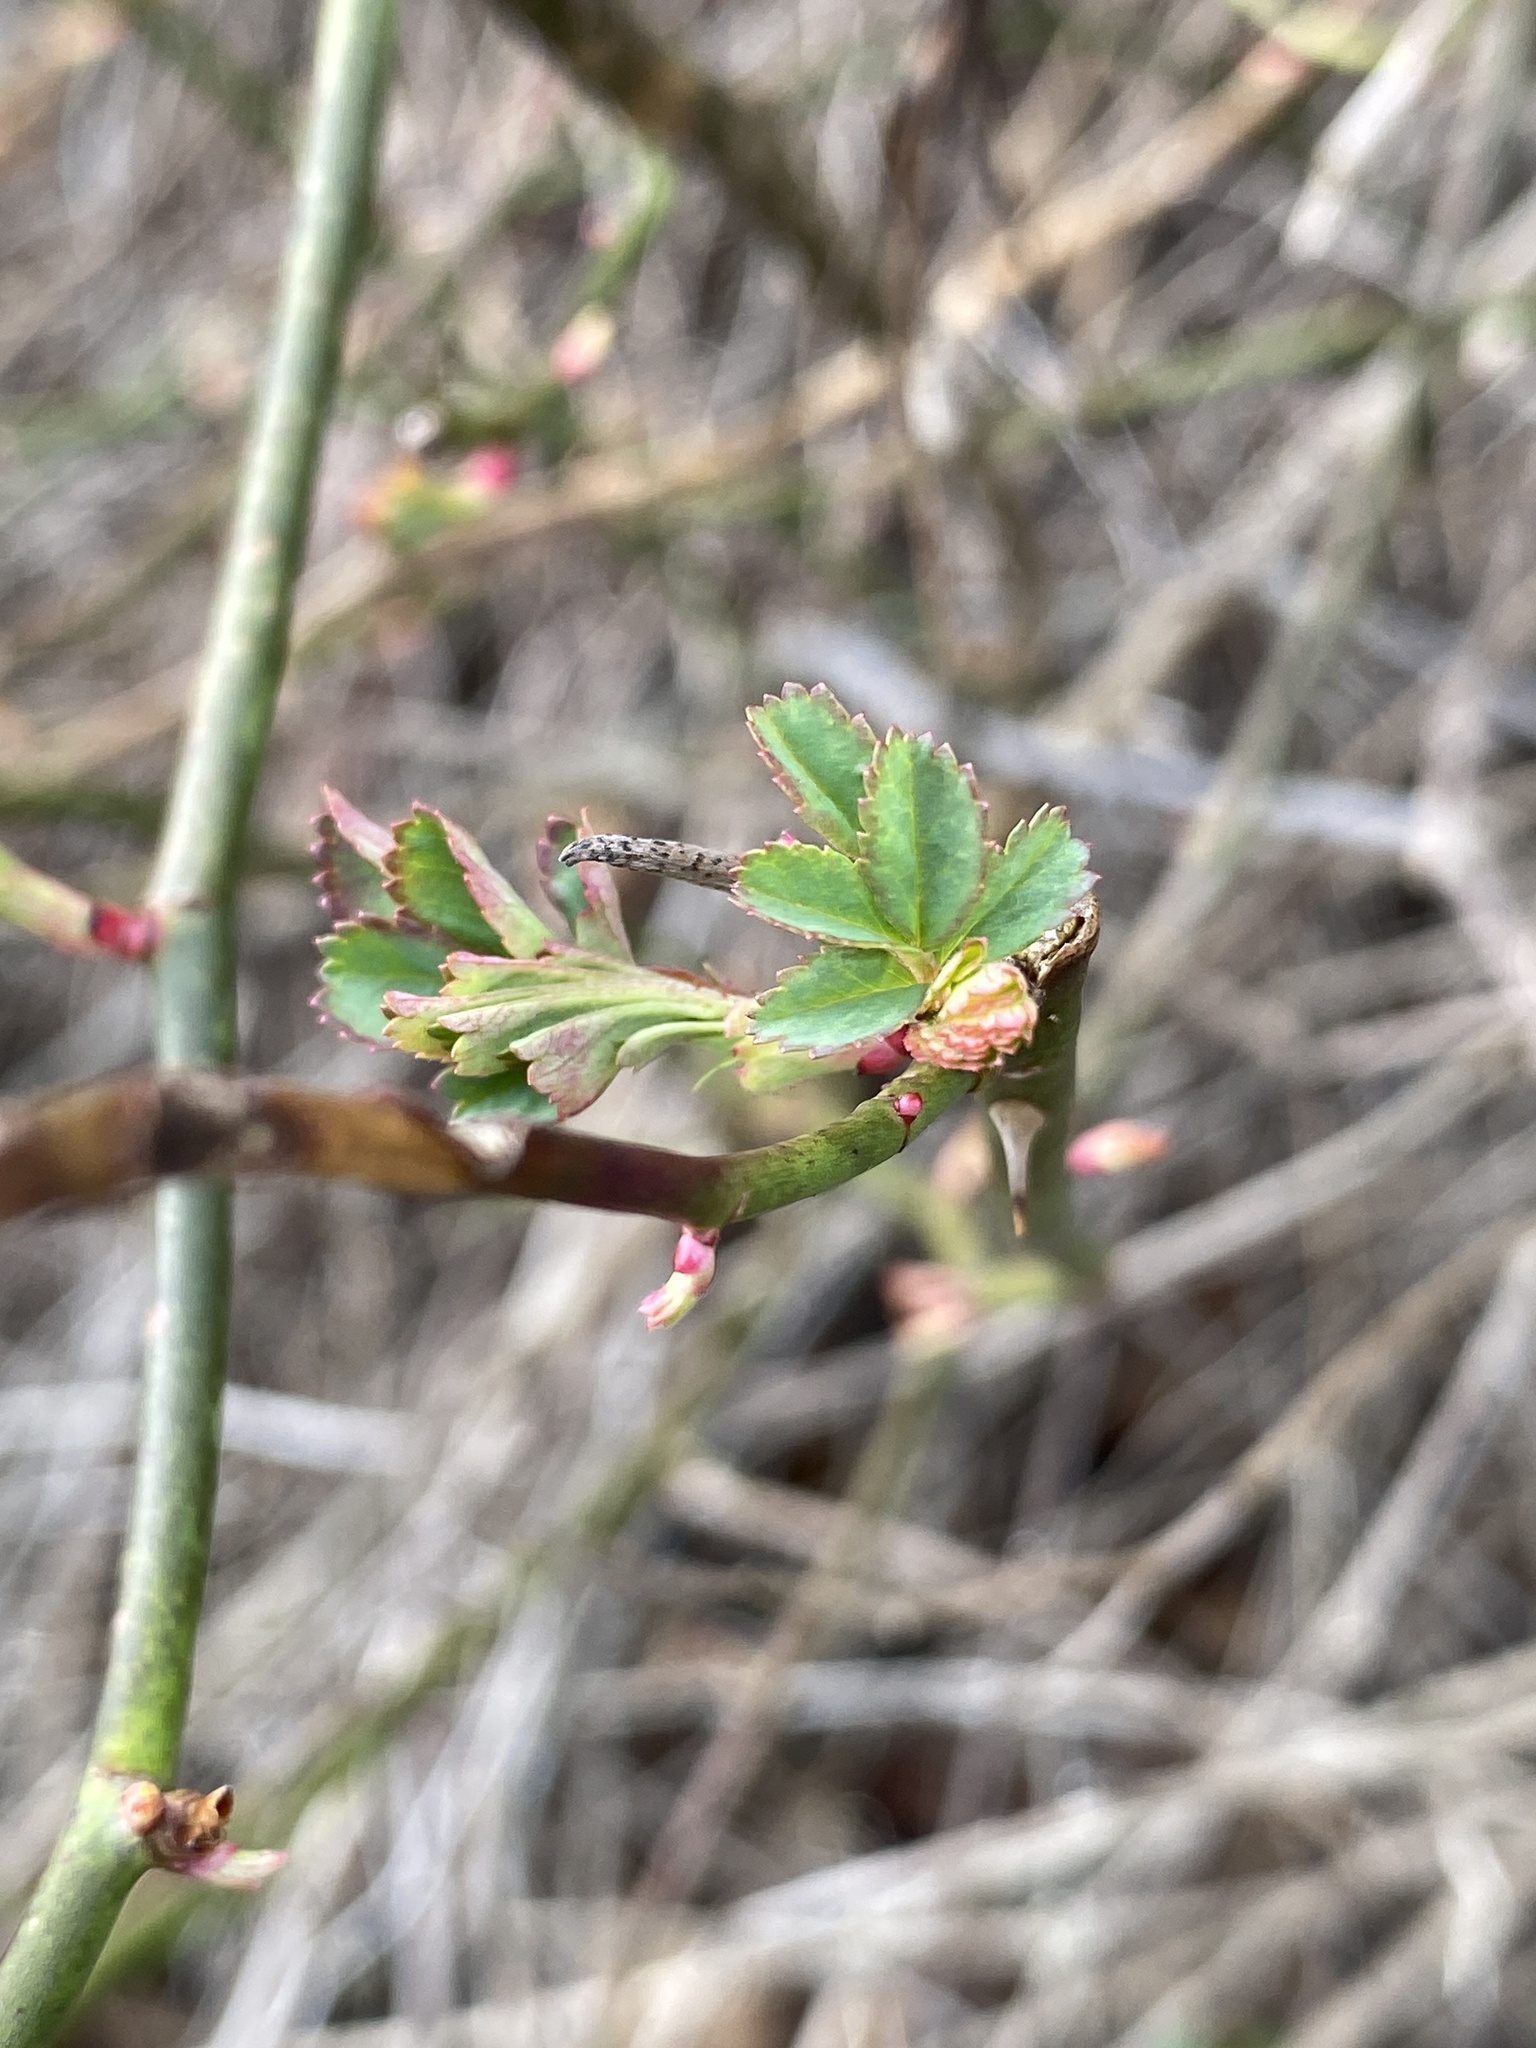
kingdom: Plantae
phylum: Tracheophyta
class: Magnoliopsida
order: Rosales
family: Rosaceae
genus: Rosa
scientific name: Rosa multiflora
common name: Multiflora rose
